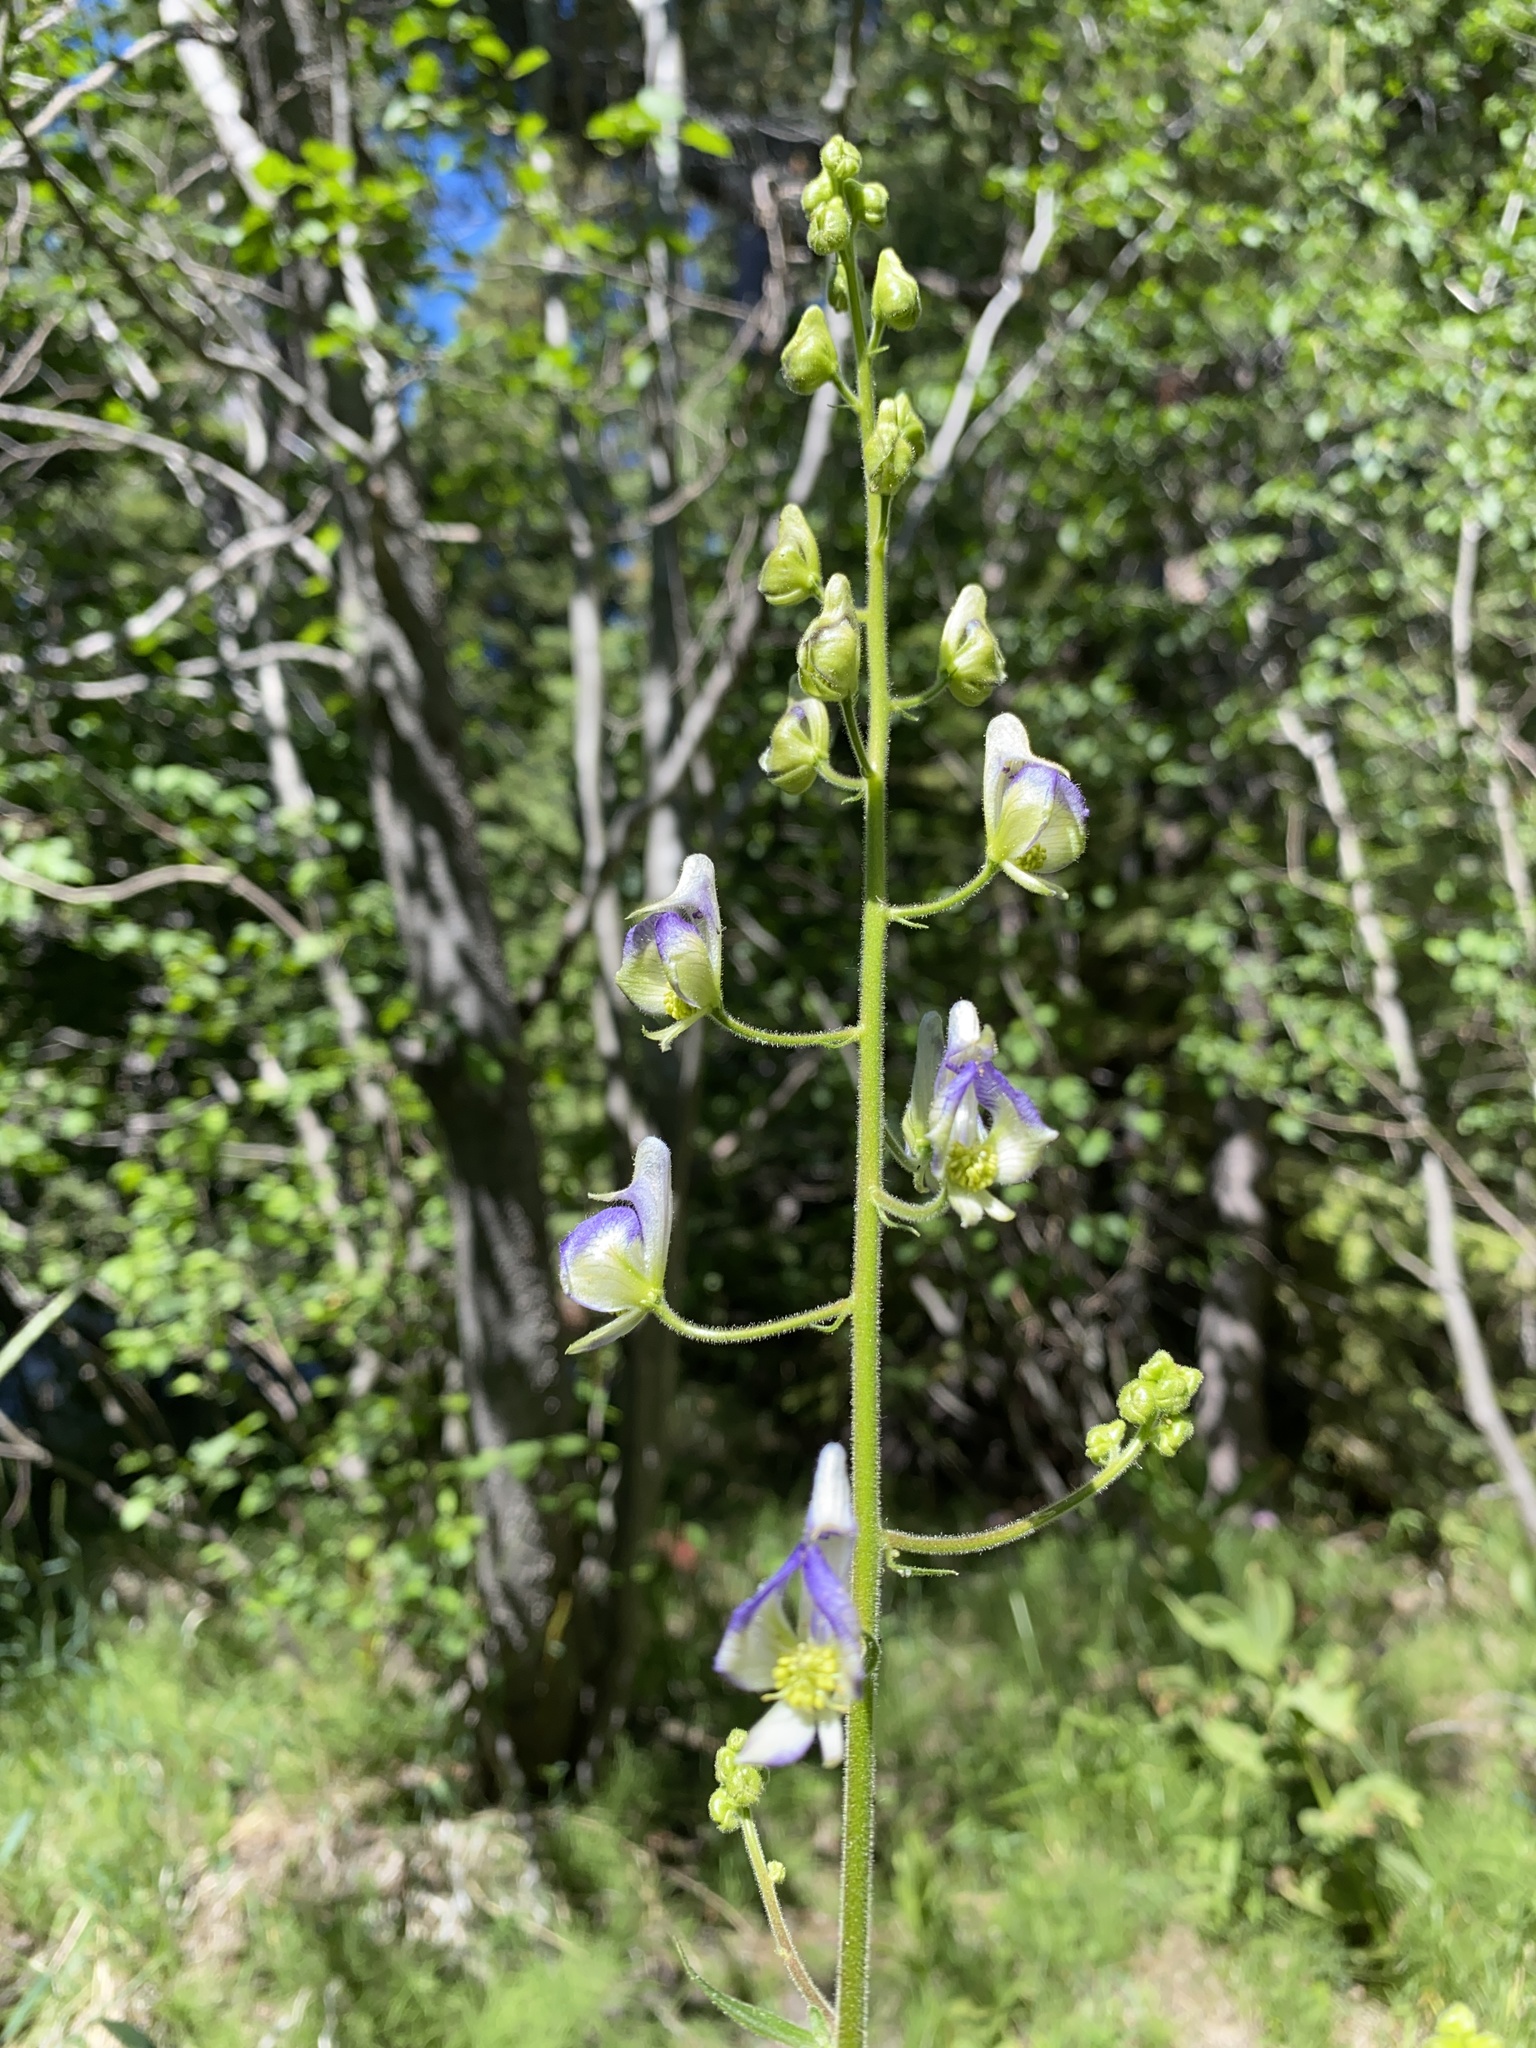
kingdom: Plantae
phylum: Tracheophyta
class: Magnoliopsida
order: Ranunculales
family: Ranunculaceae
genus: Aconitum
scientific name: Aconitum columbianum
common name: Columbia aconite
